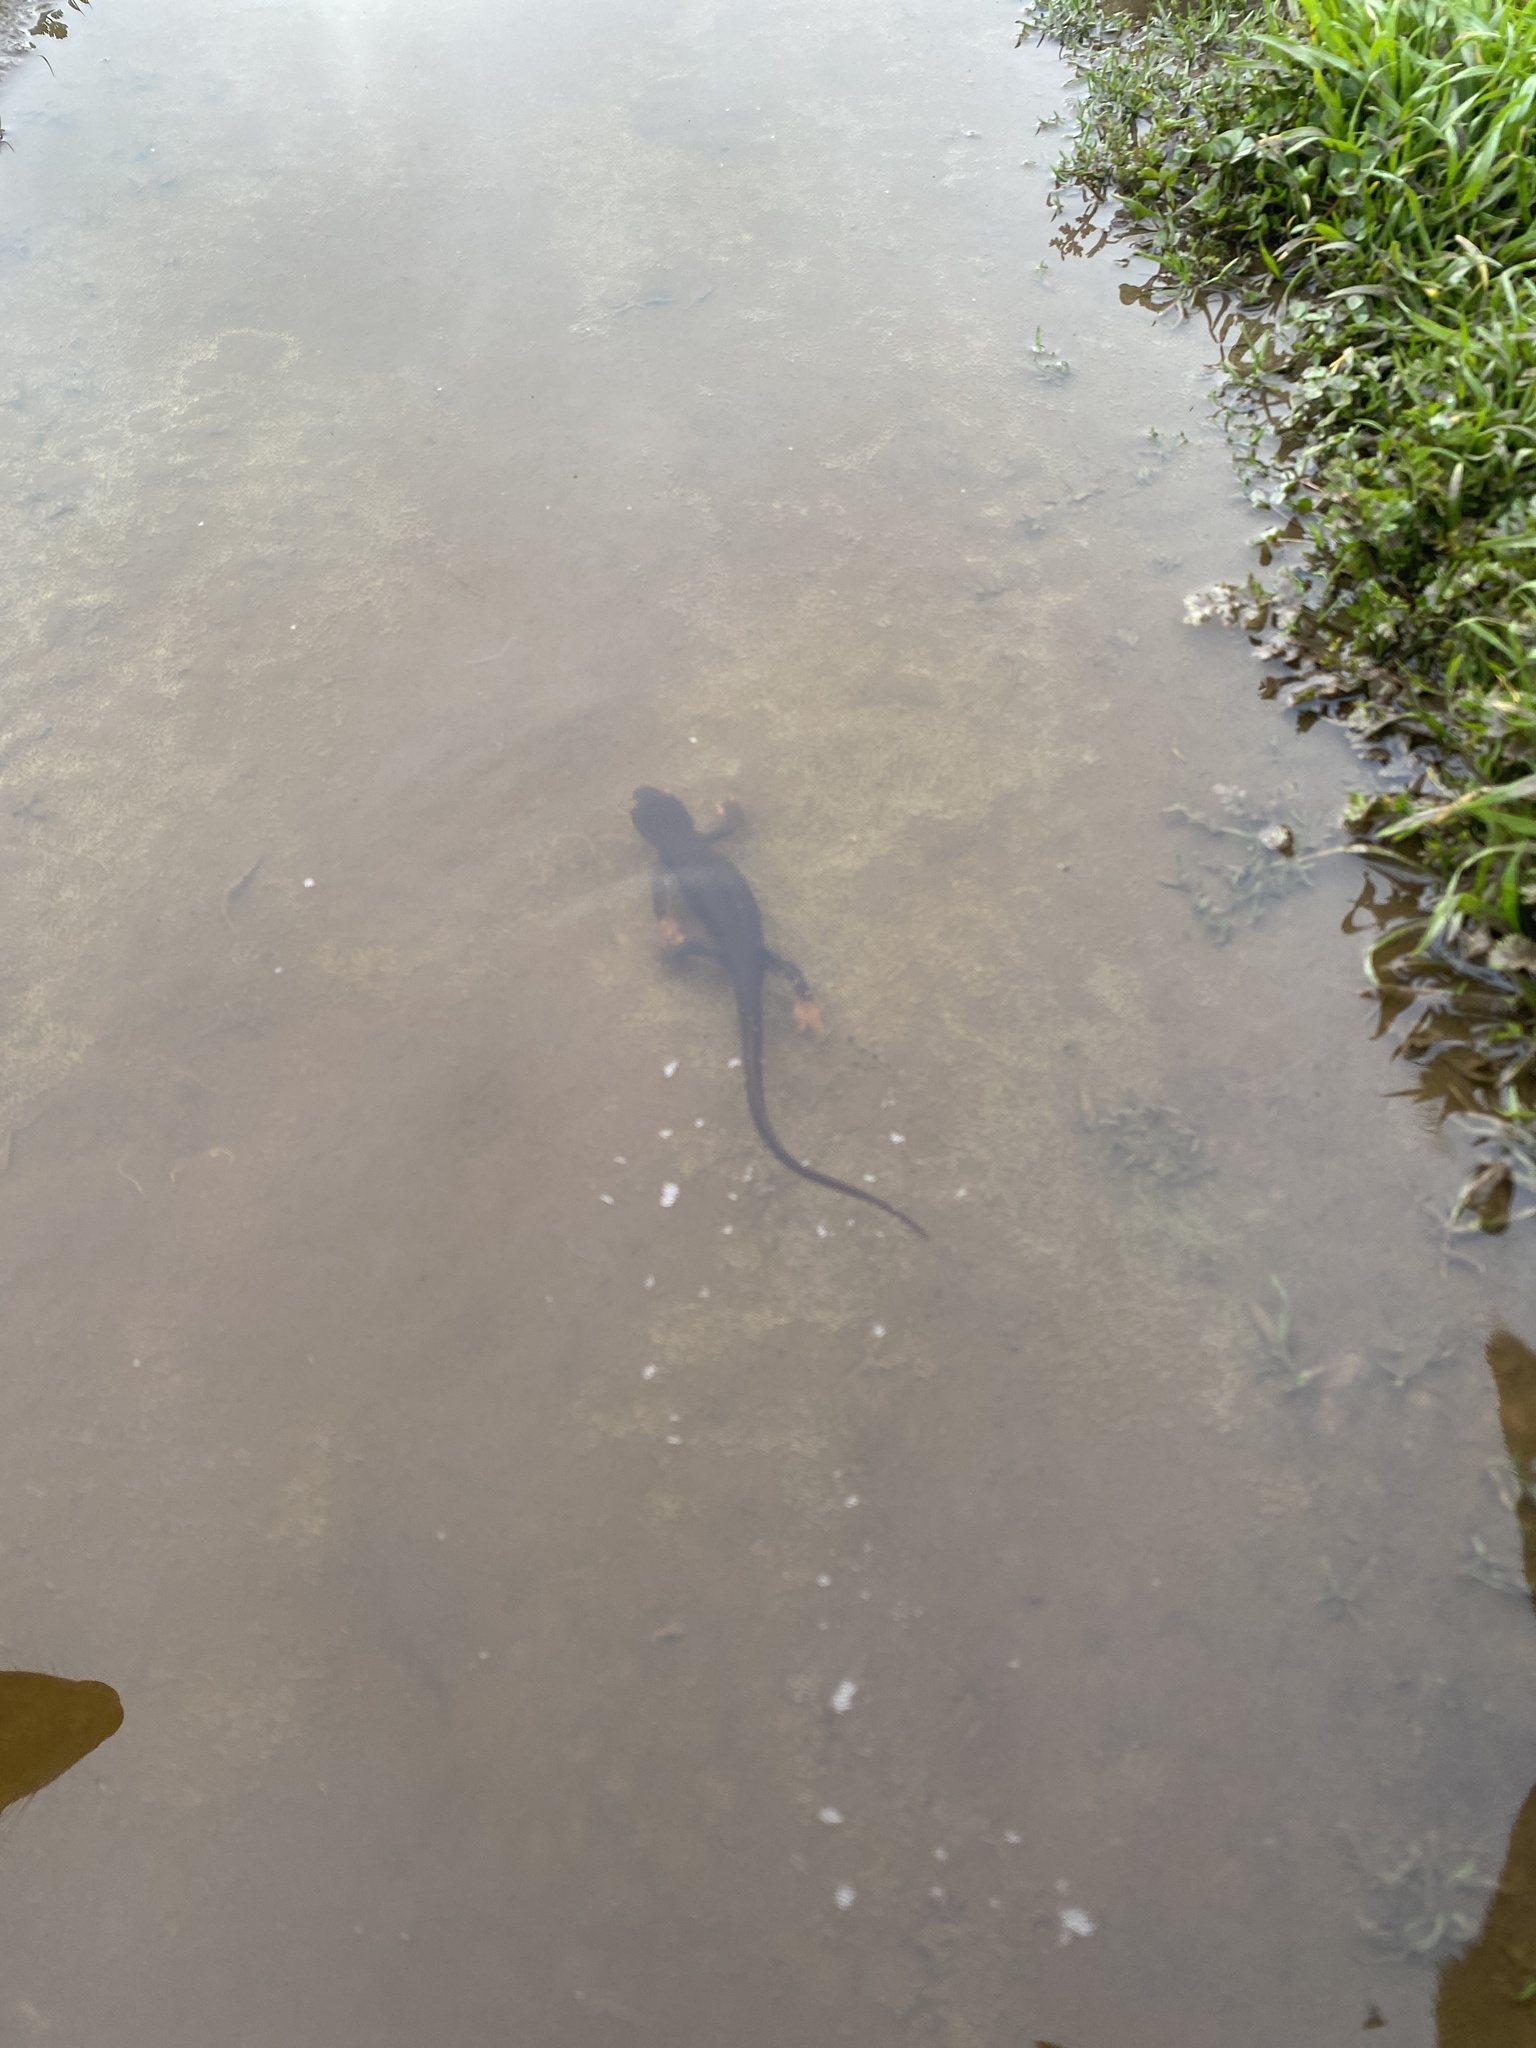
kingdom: Animalia
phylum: Chordata
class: Amphibia
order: Caudata
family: Salamandridae
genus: Taricha
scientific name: Taricha torosa
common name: California newt
